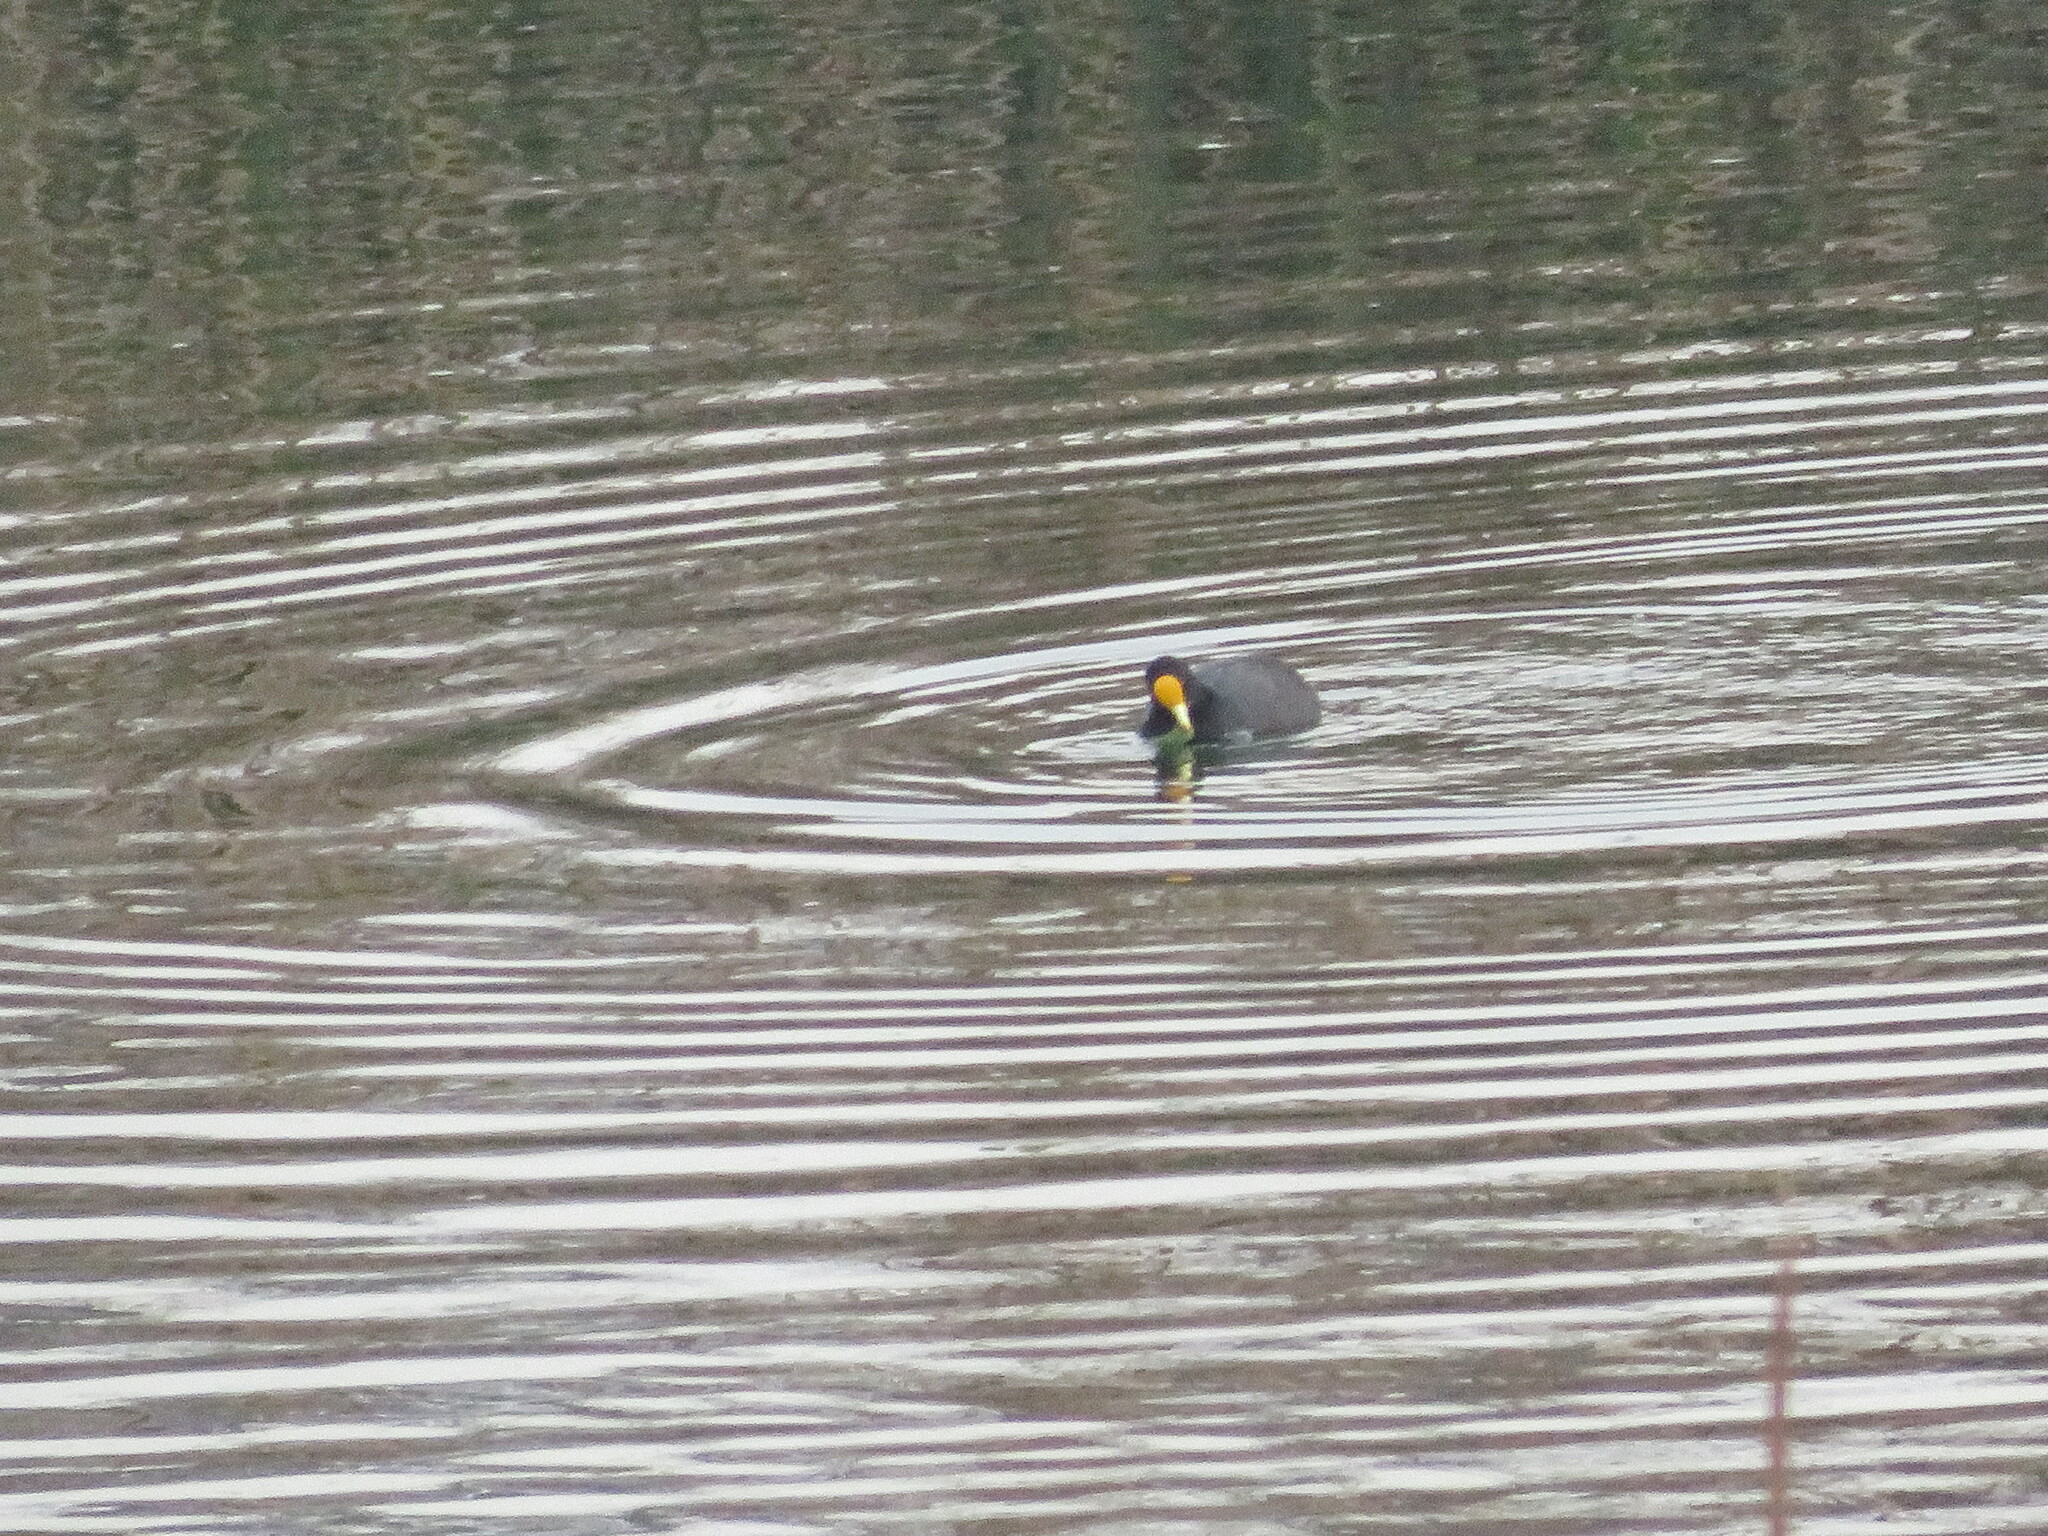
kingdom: Animalia
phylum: Chordata
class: Aves
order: Gruiformes
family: Rallidae
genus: Fulica
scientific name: Fulica leucoptera
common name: White-winged coot
